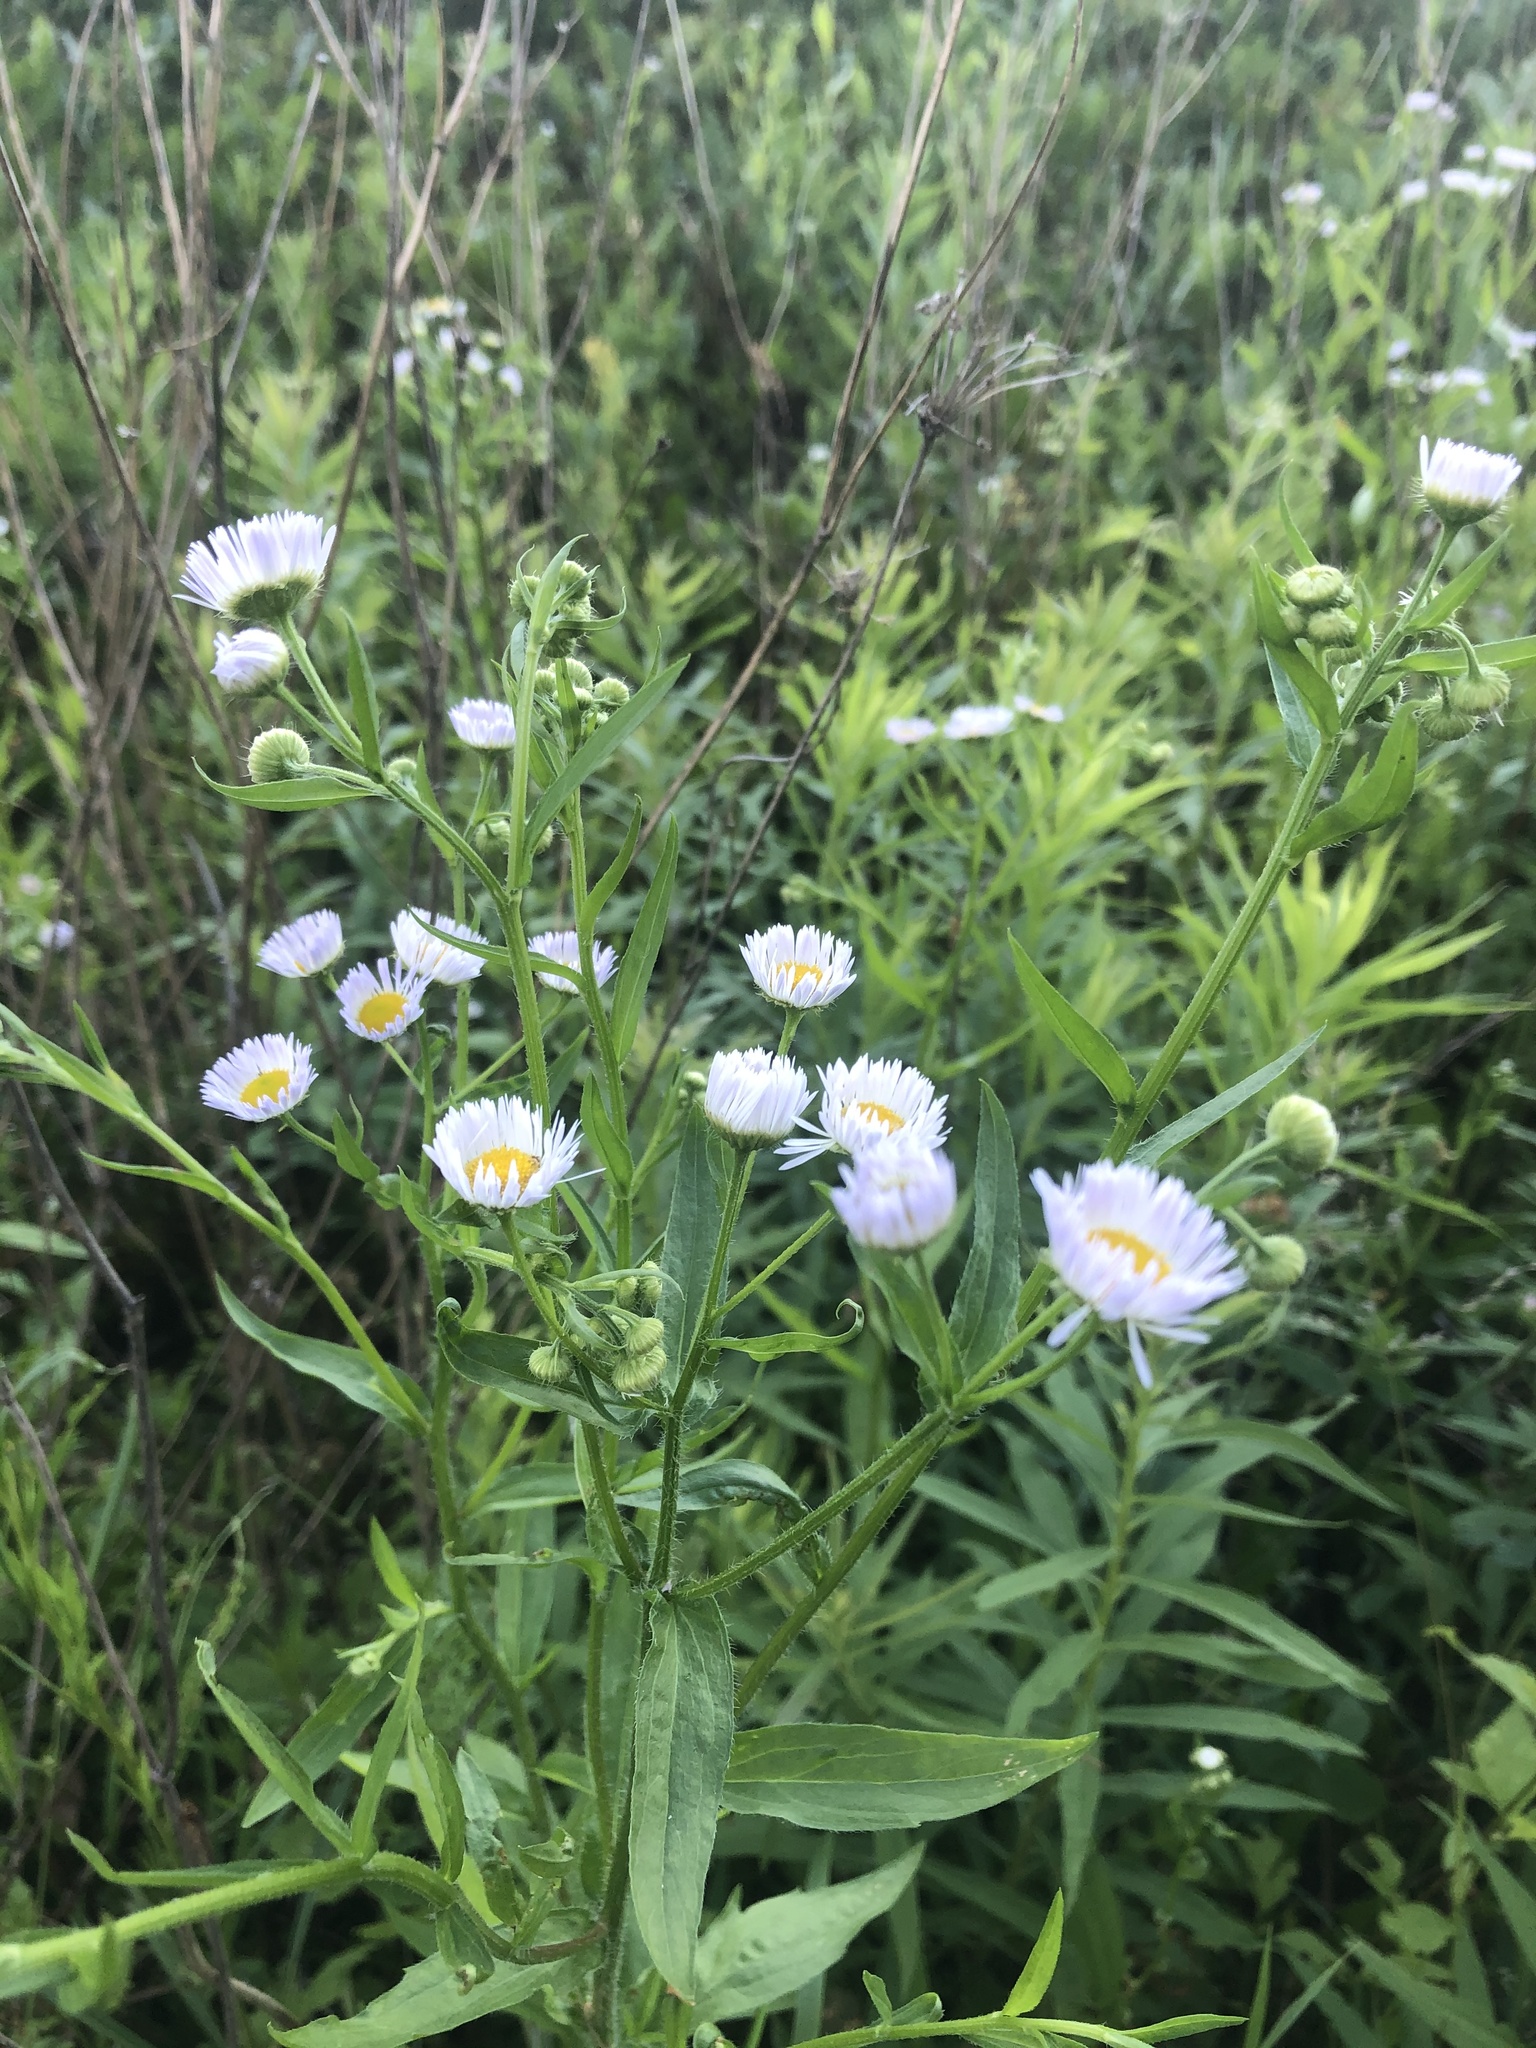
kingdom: Plantae
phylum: Tracheophyta
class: Magnoliopsida
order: Asterales
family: Asteraceae
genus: Erigeron
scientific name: Erigeron annuus
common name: Tall fleabane
